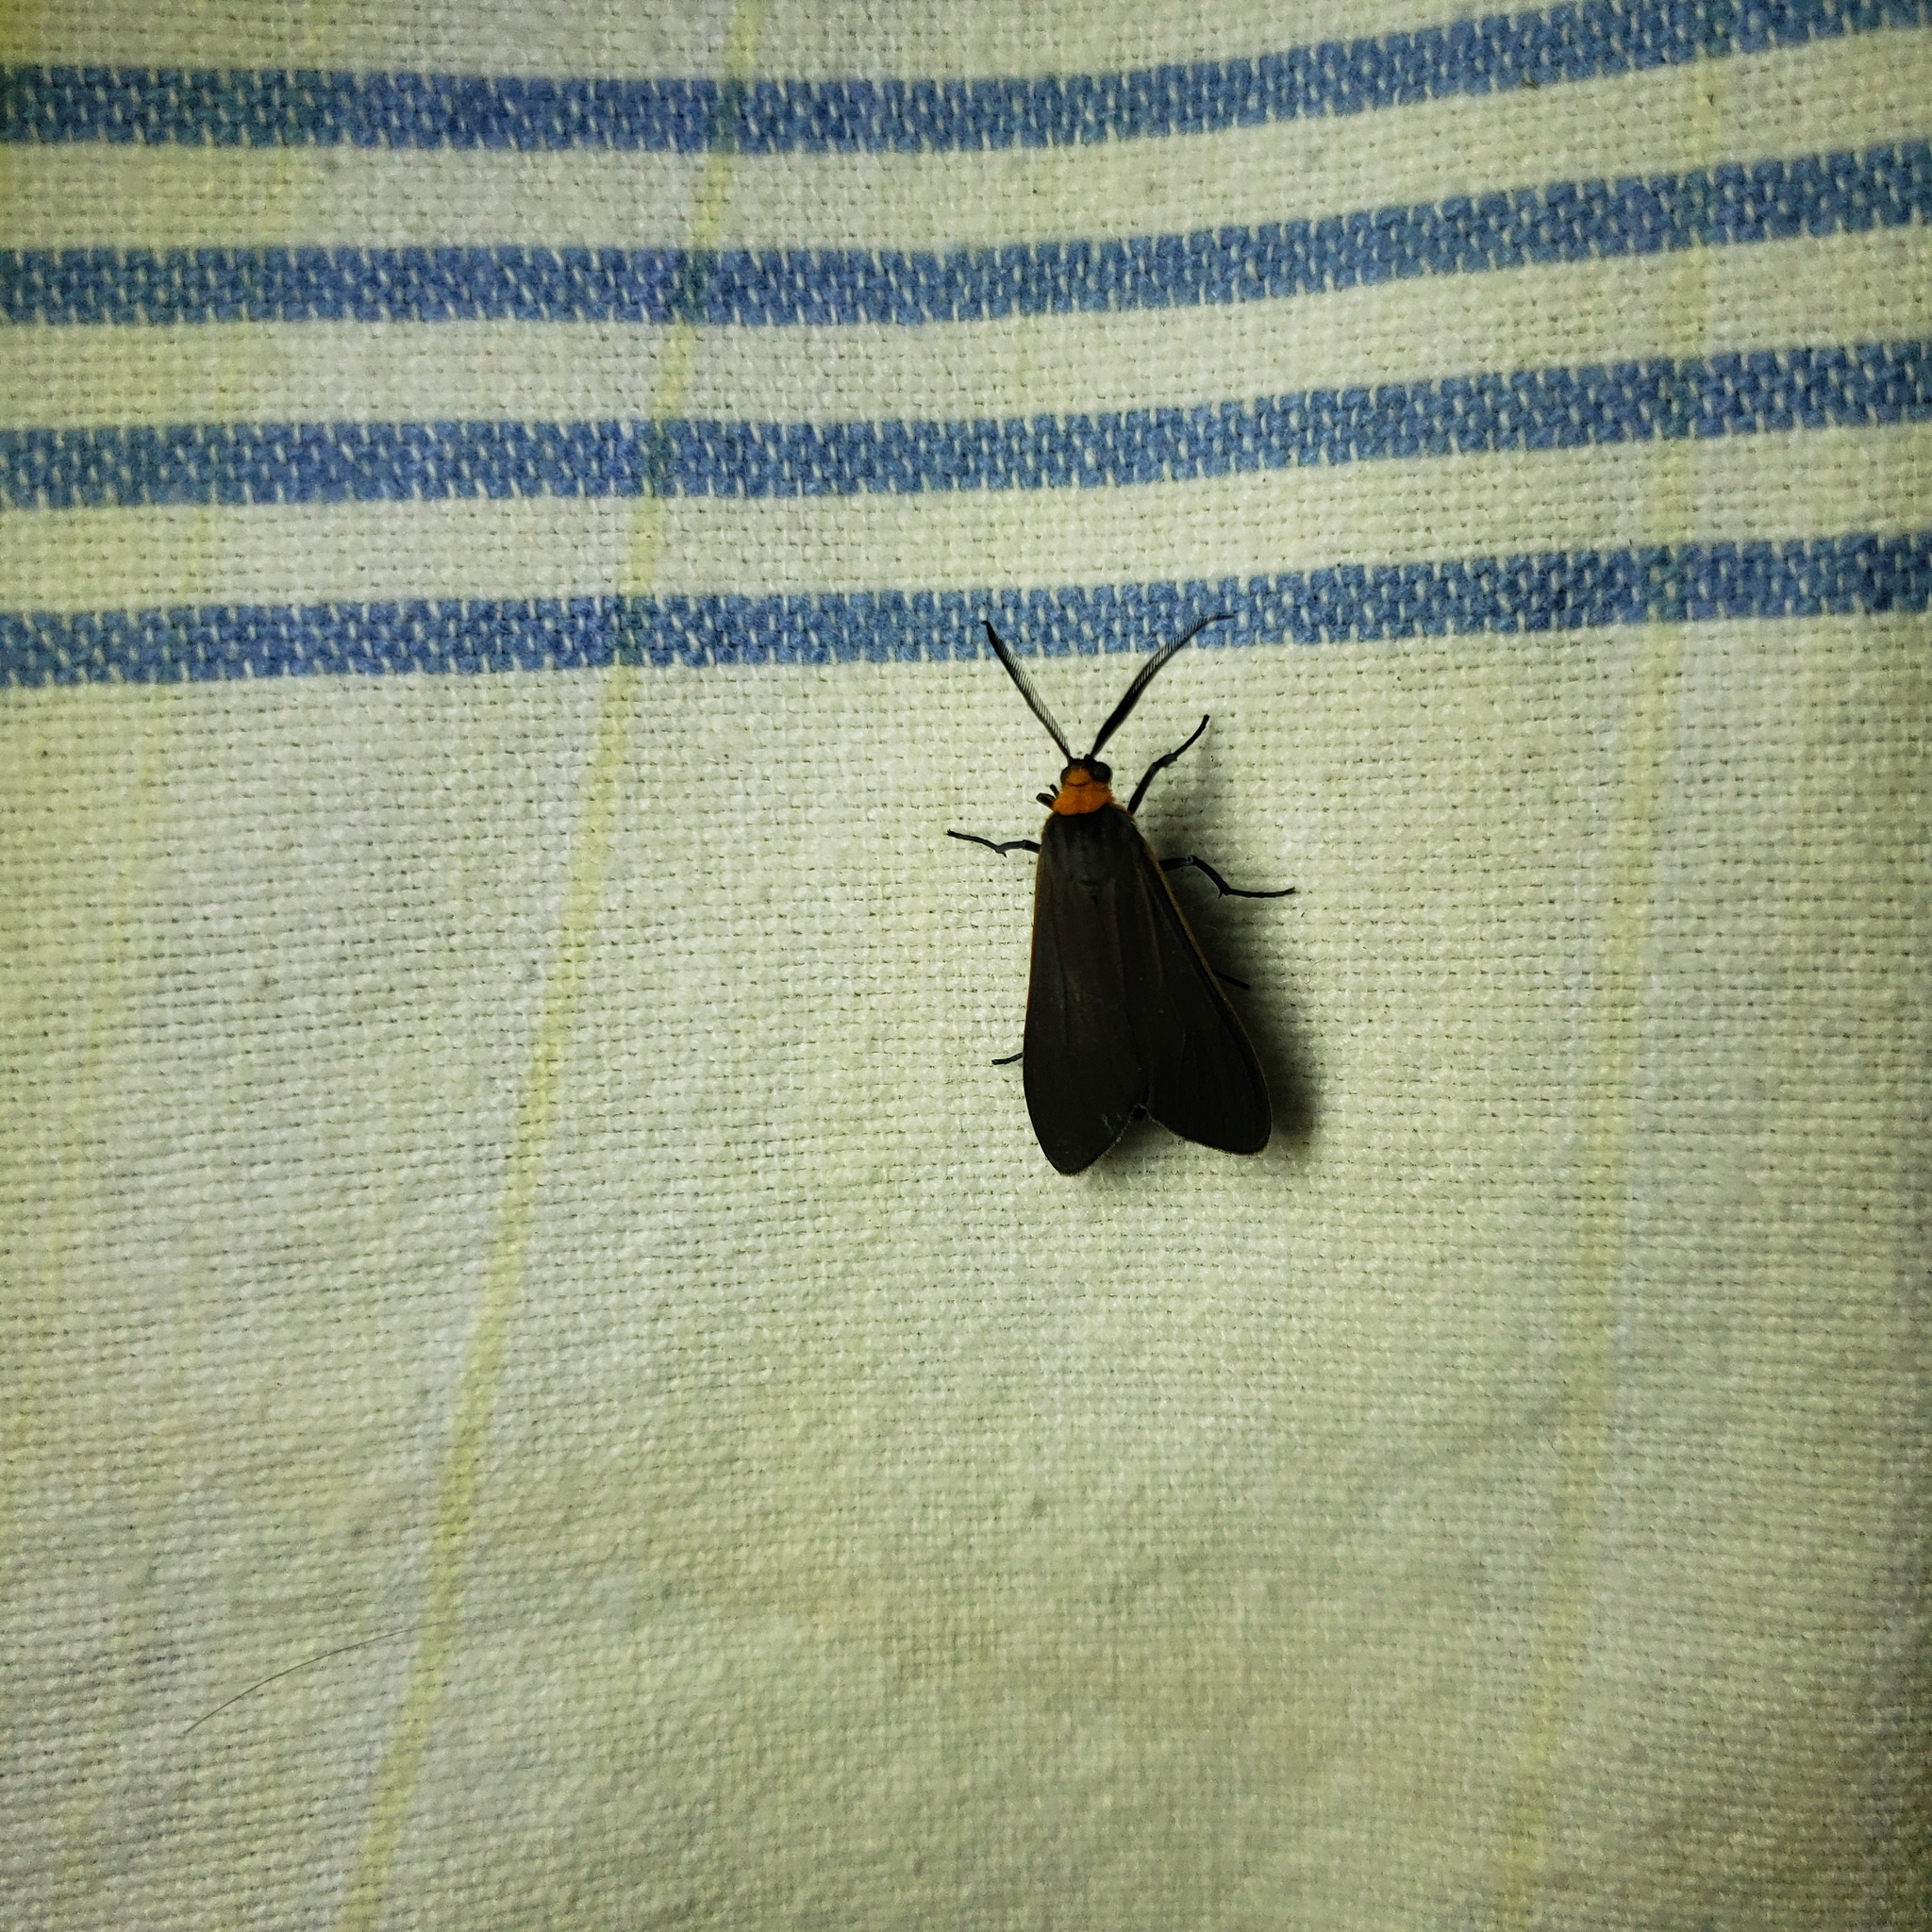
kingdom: Animalia
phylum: Arthropoda
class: Insecta
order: Lepidoptera
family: Erebidae
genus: Cisseps
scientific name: Cisseps fulvicollis
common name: Yellow-collared scape moth
